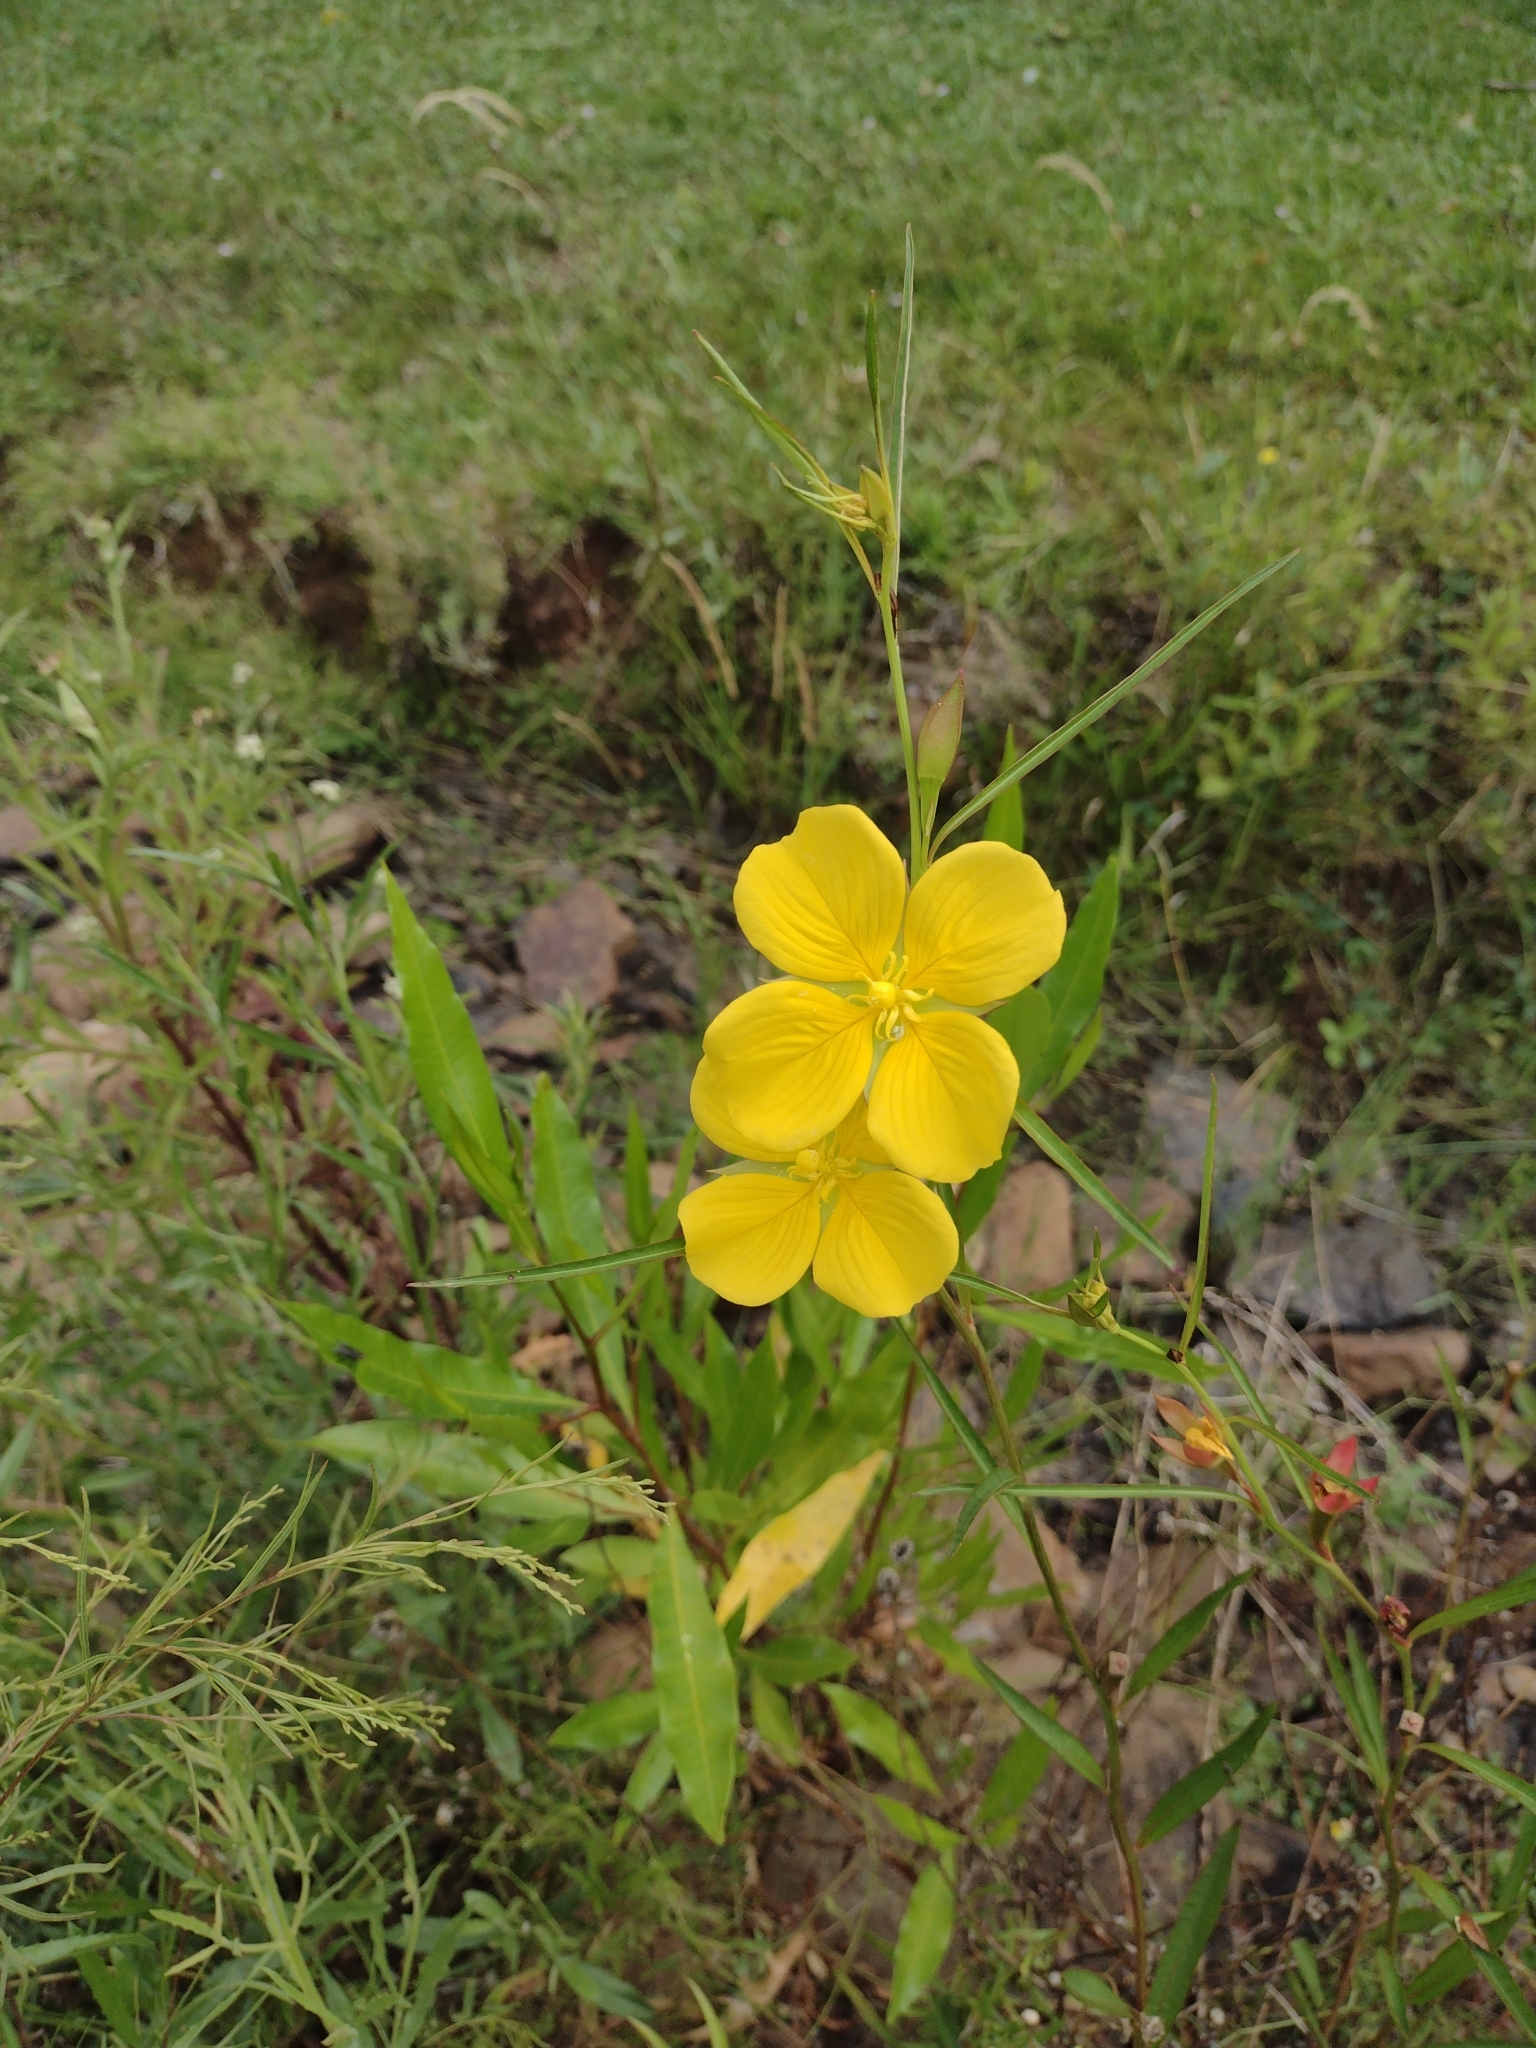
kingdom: Plantae
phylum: Tracheophyta
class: Magnoliopsida
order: Myrtales
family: Onagraceae
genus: Ludwigia
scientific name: Ludwigia longifolia
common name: Longleaf primrose-willow
